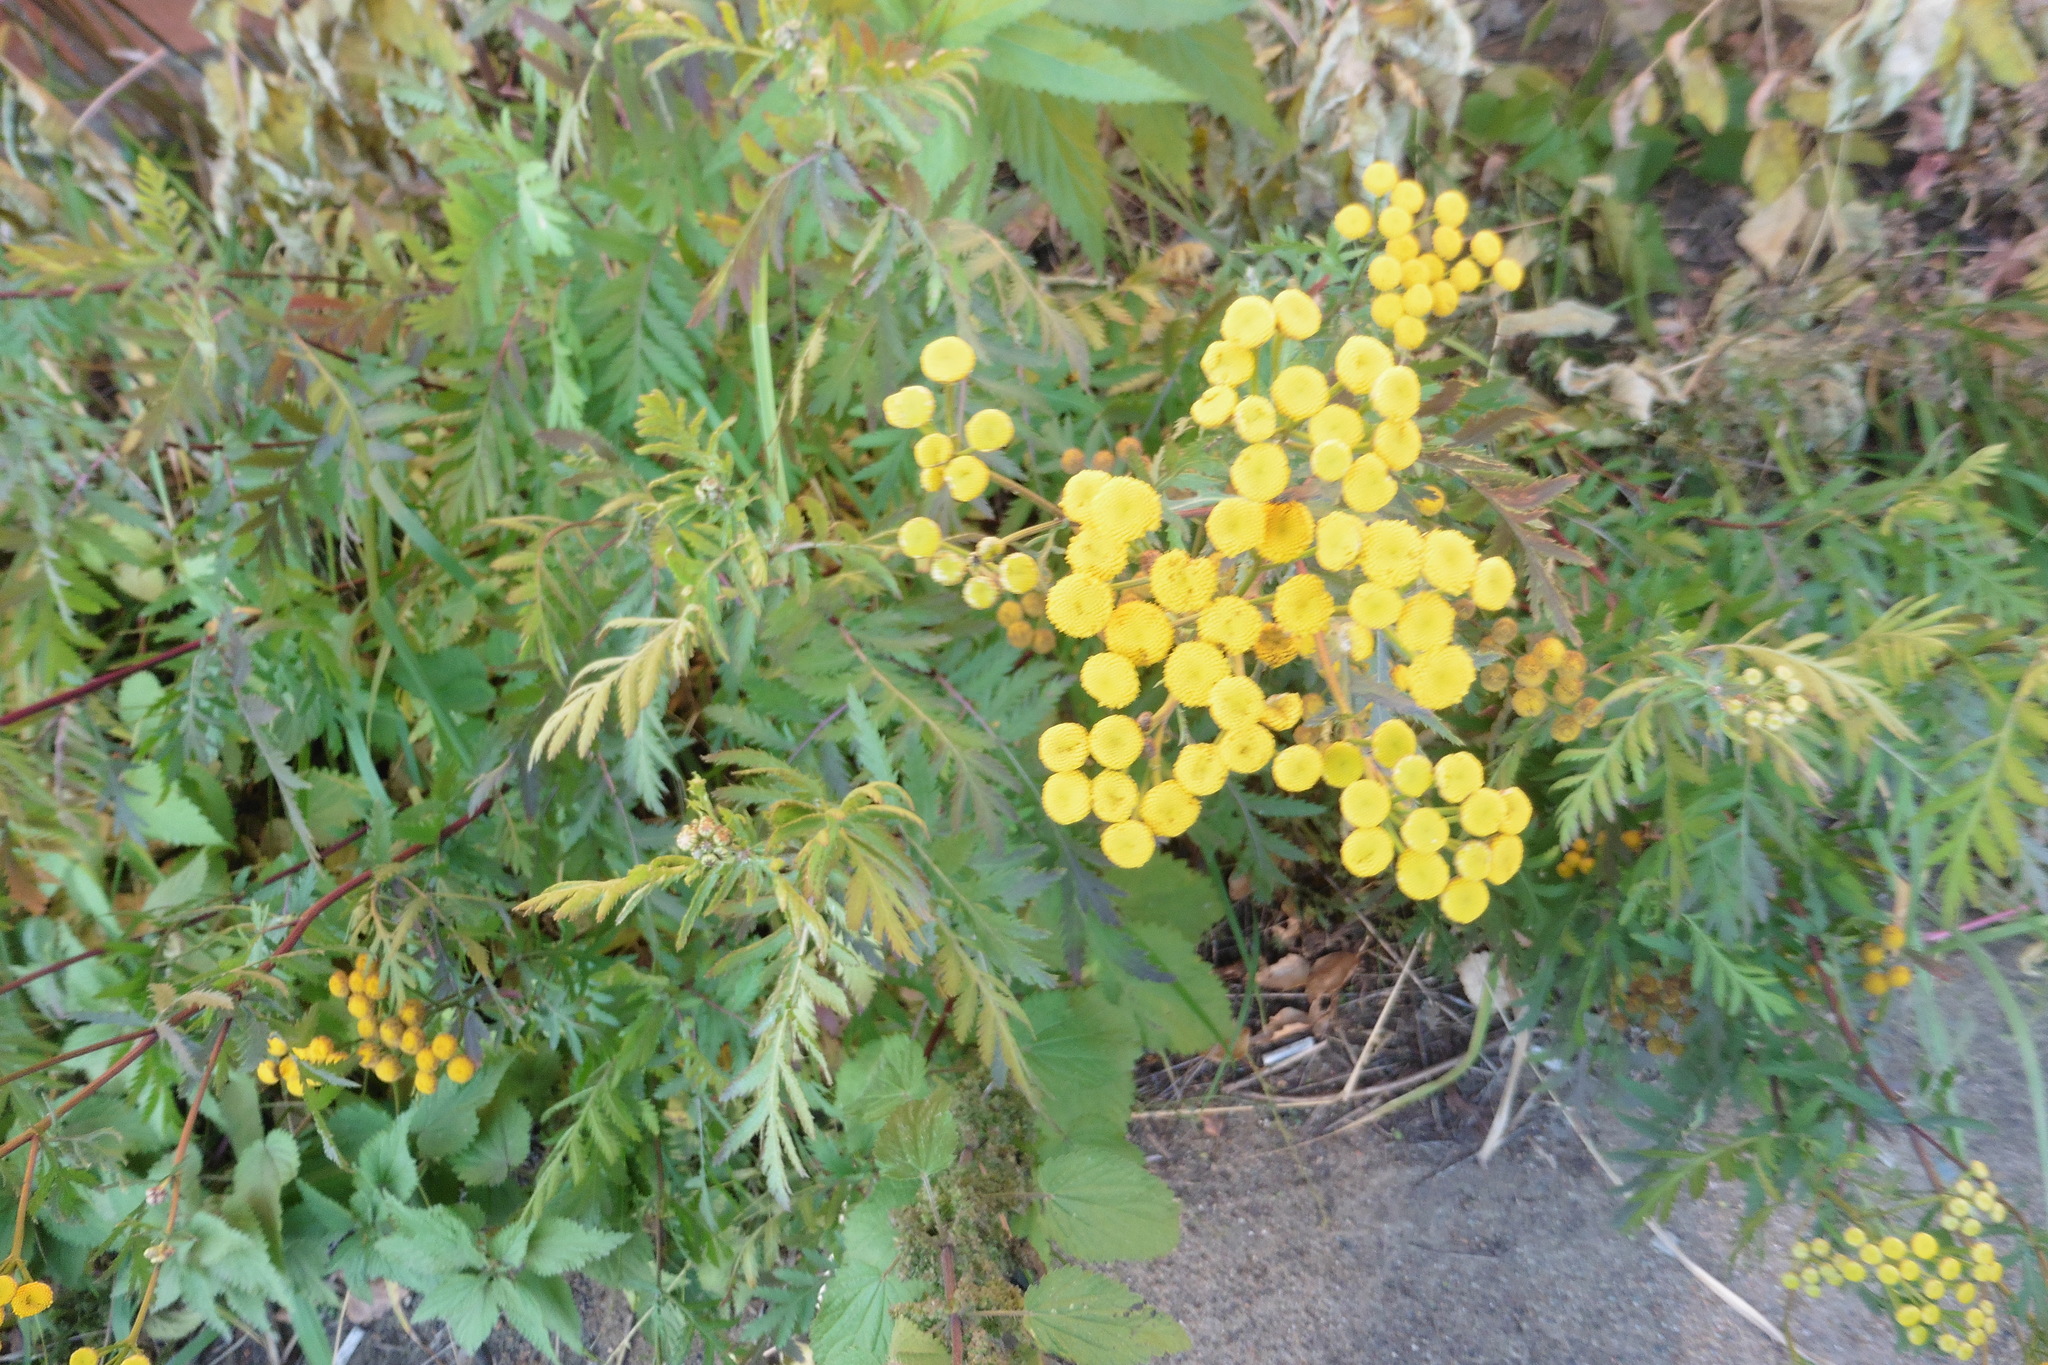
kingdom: Plantae
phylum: Tracheophyta
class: Magnoliopsida
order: Asterales
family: Asteraceae
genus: Tanacetum
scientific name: Tanacetum vulgare
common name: Common tansy
